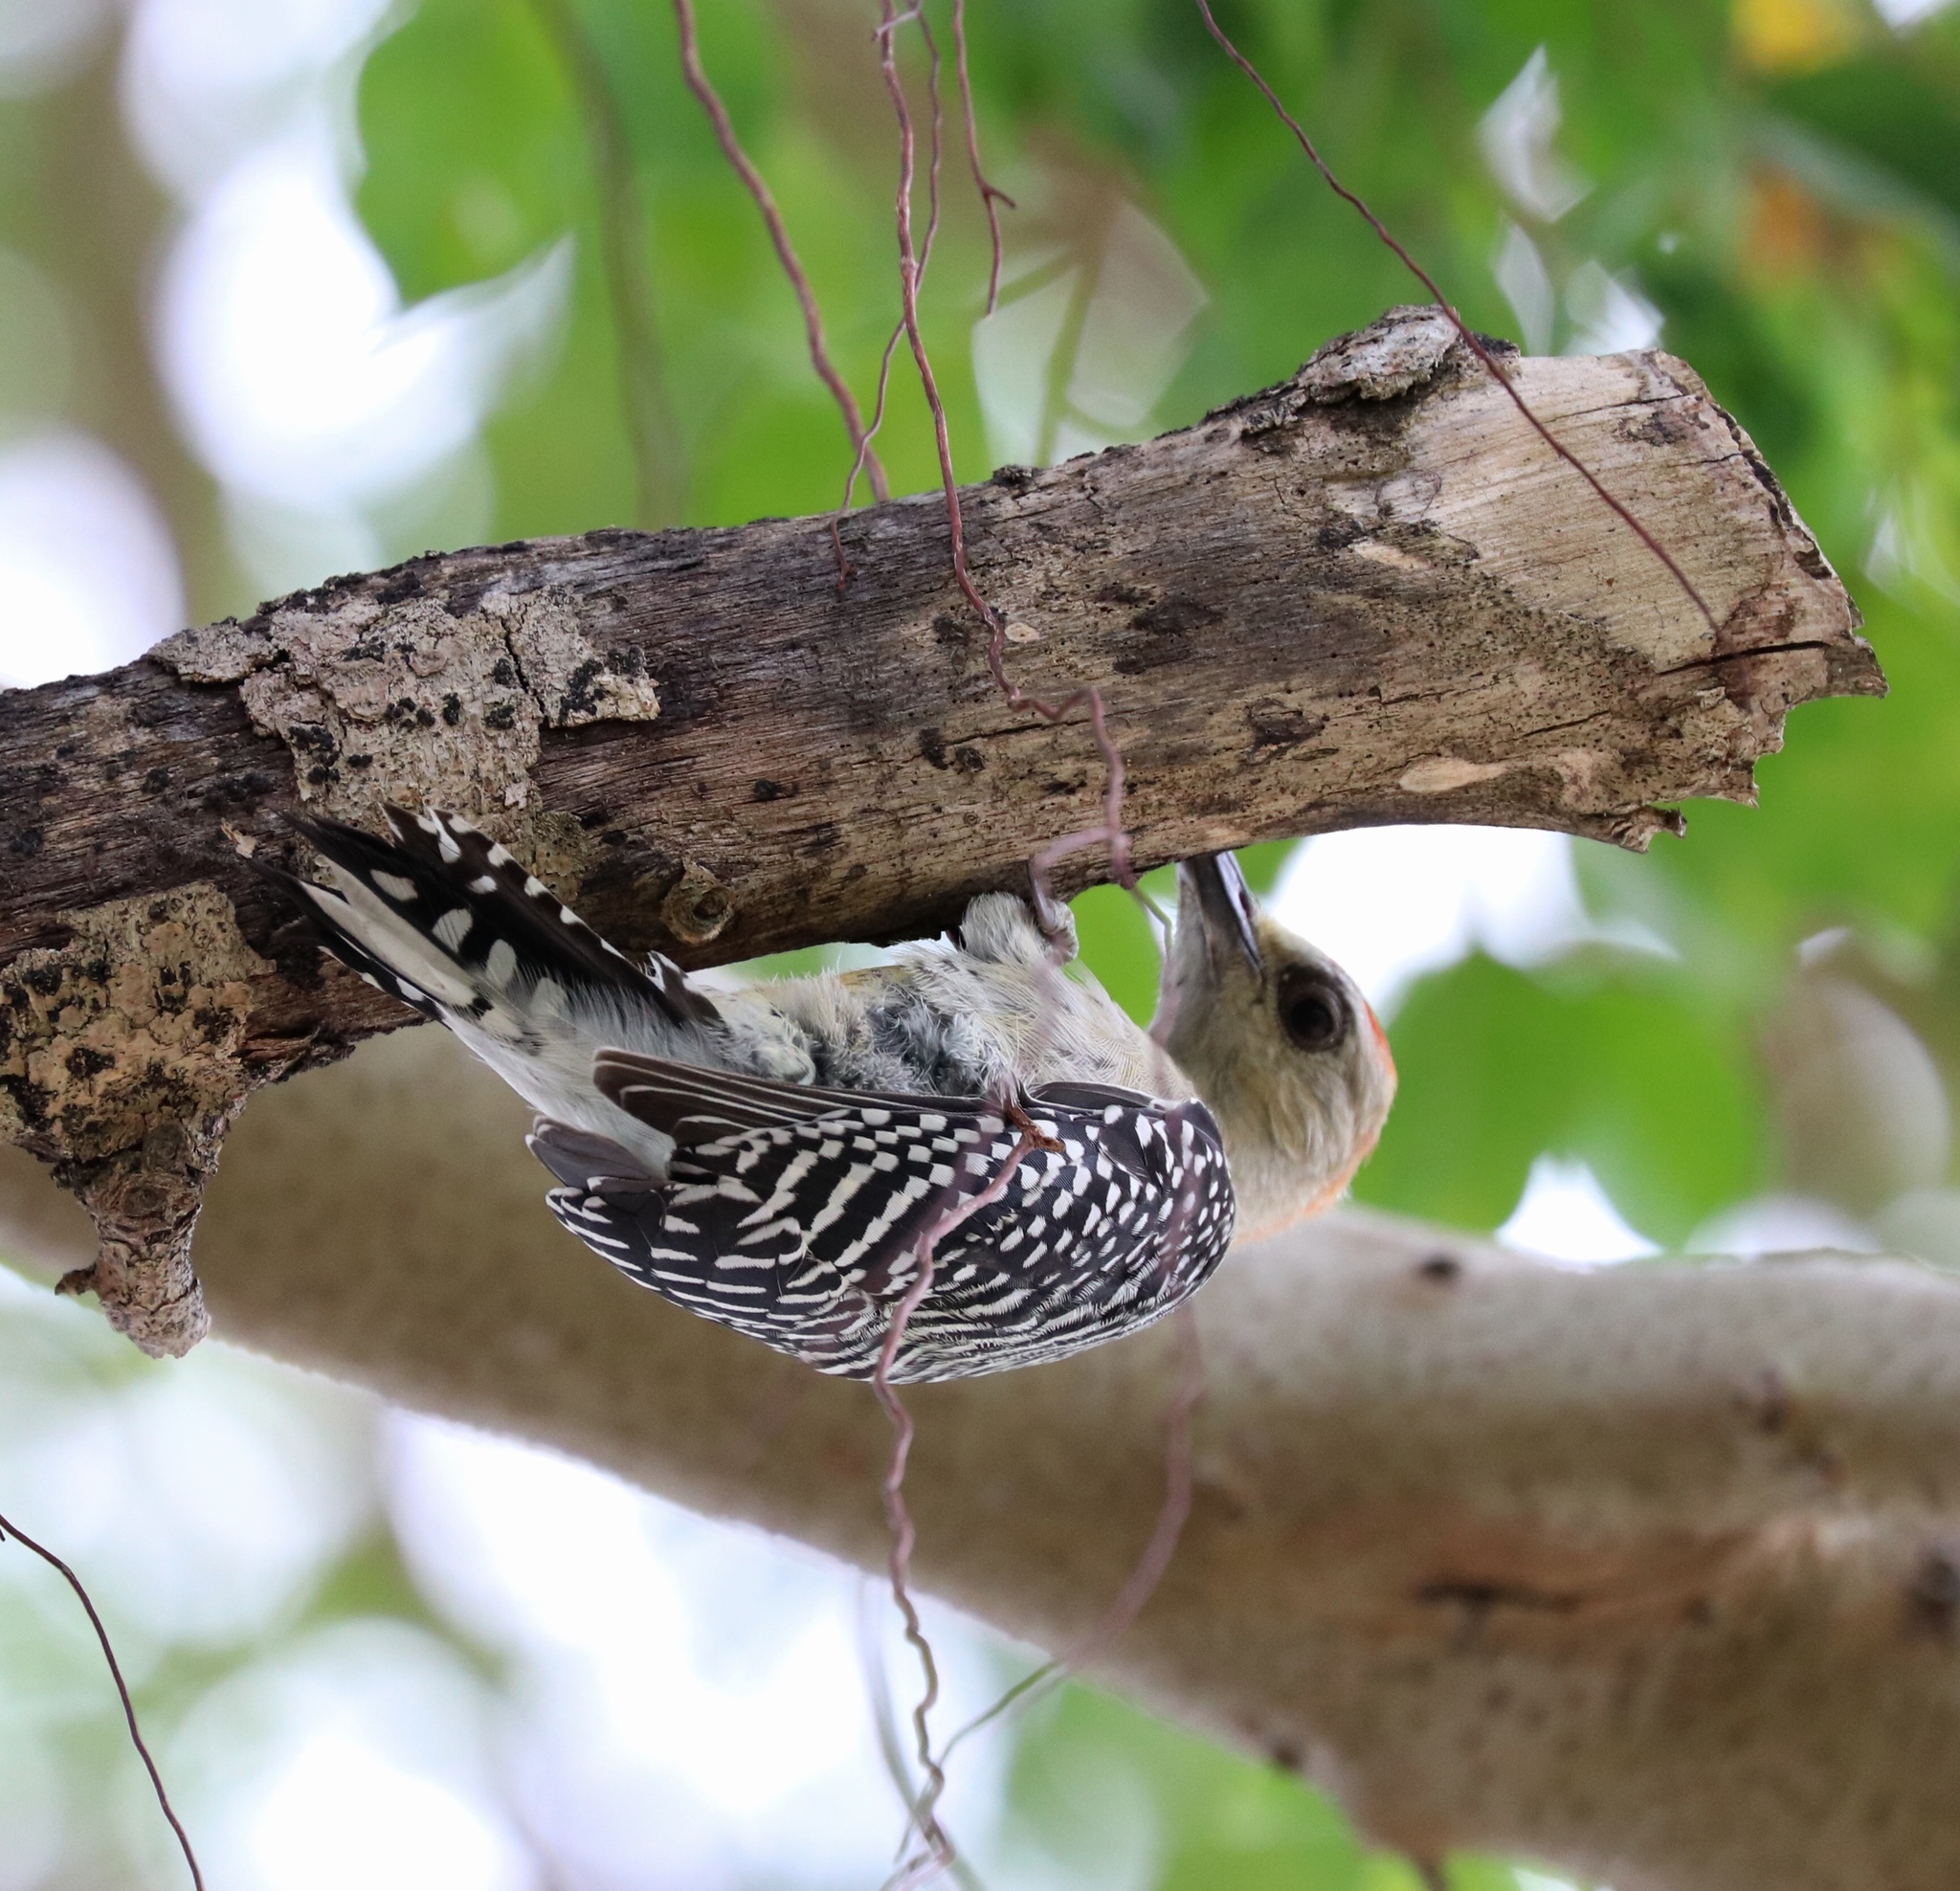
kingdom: Animalia
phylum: Chordata
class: Aves
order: Piciformes
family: Picidae
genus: Melanerpes
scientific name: Melanerpes rubricapillus
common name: Red-crowned woodpecker
